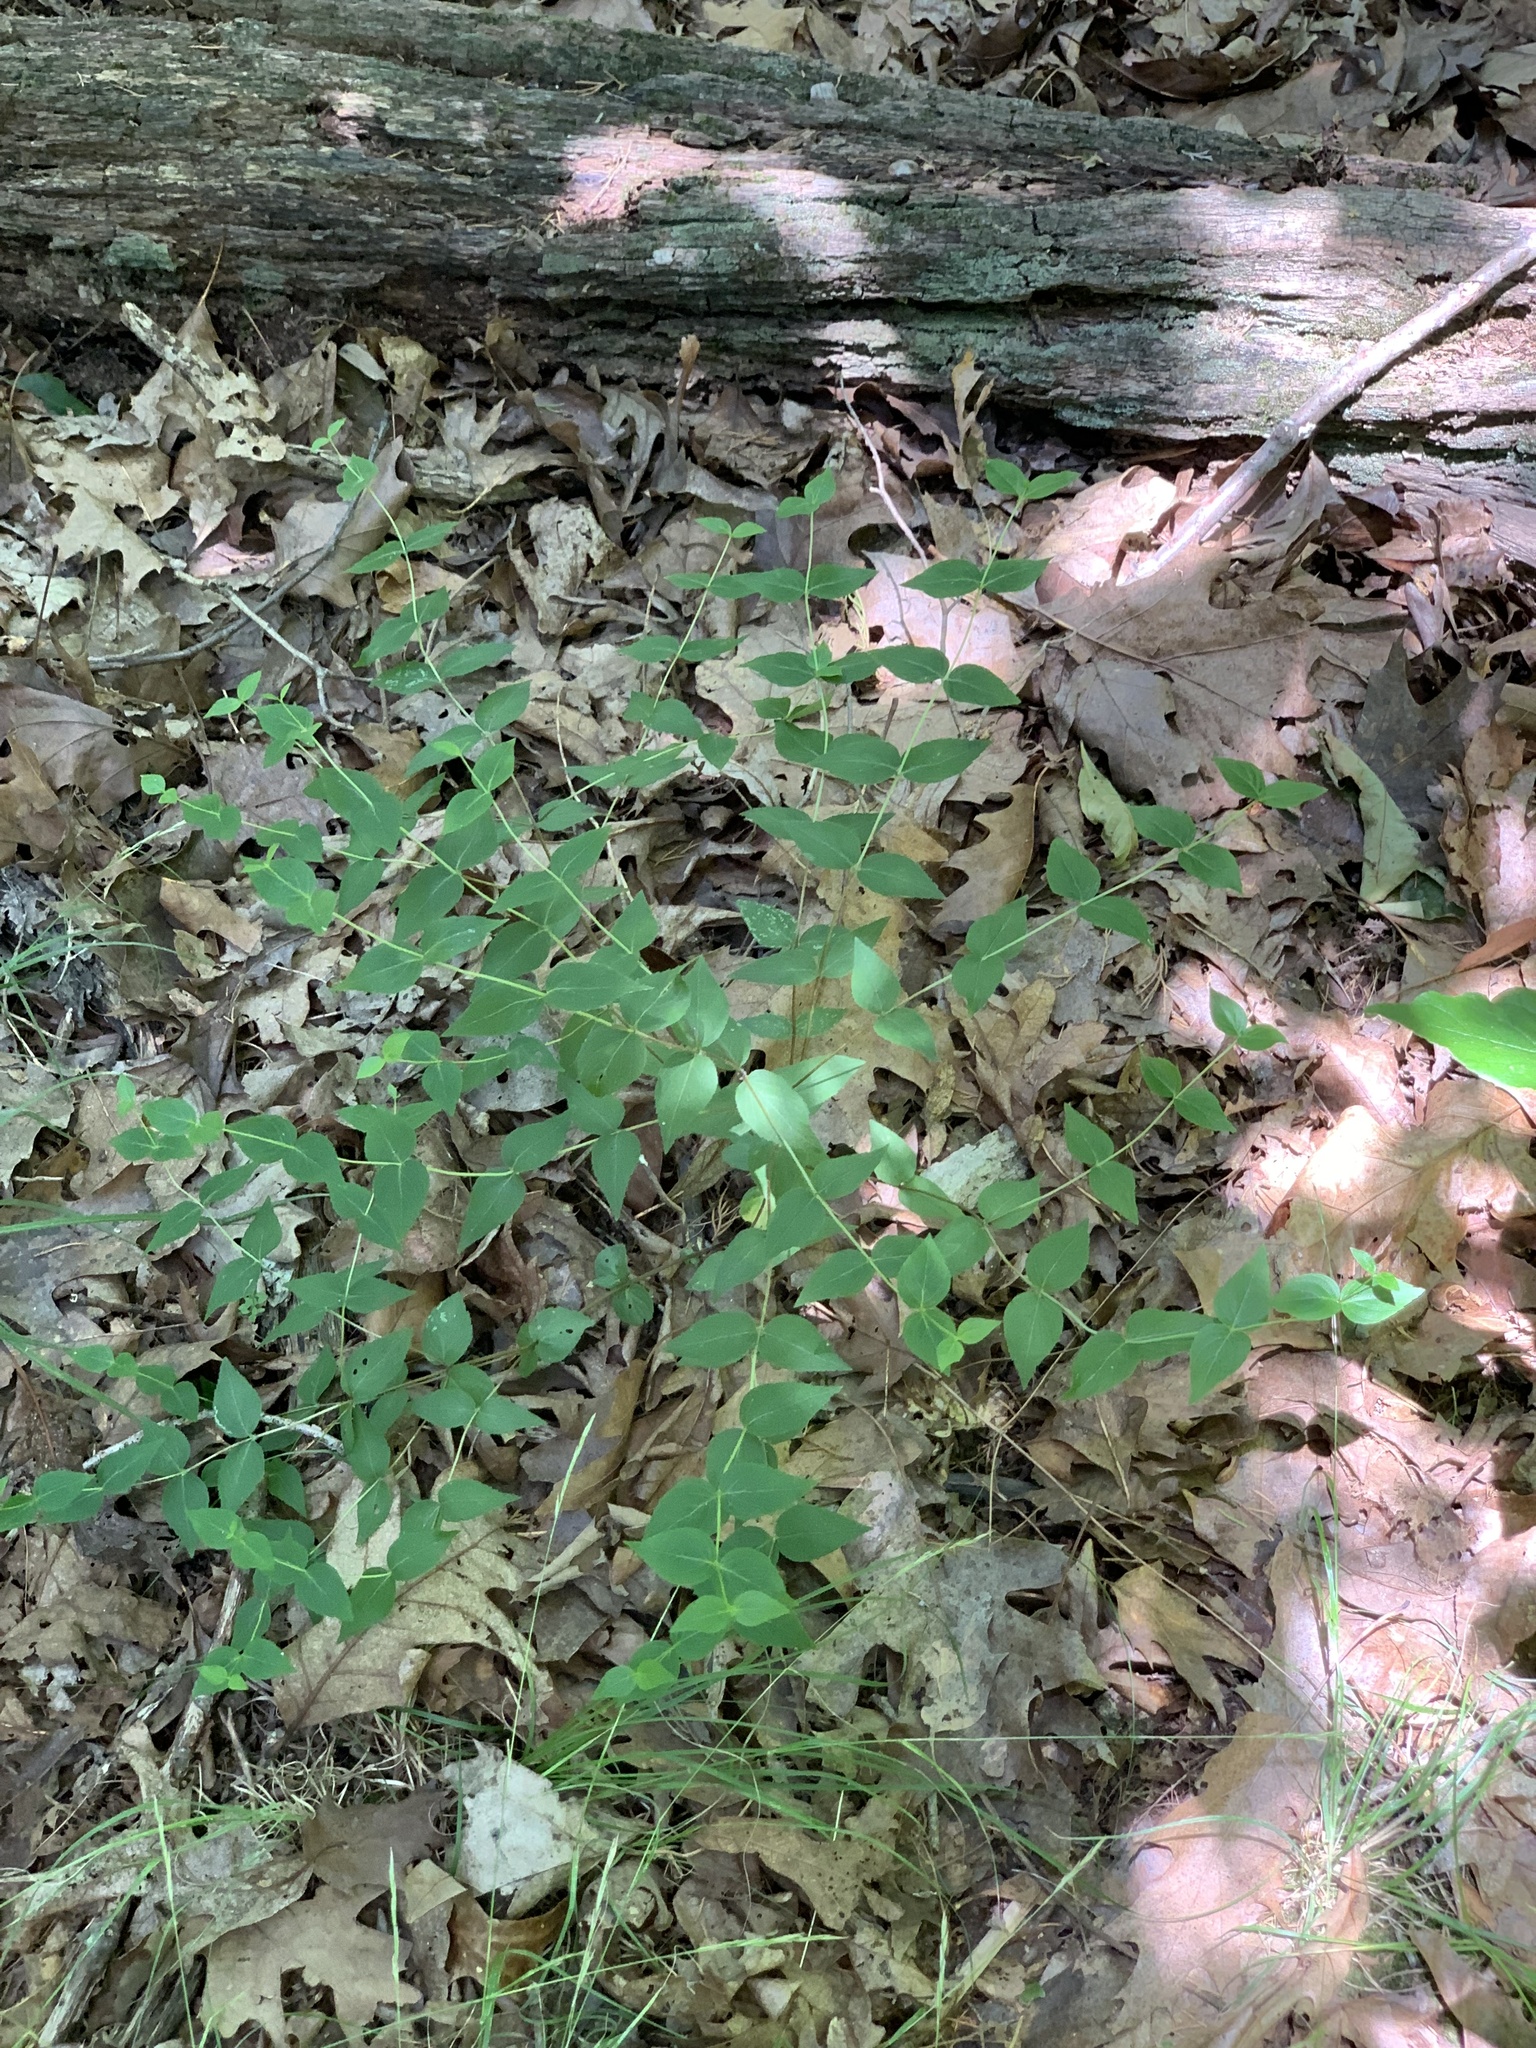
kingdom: Plantae
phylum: Tracheophyta
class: Magnoliopsida
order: Lamiales
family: Lamiaceae
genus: Cunila
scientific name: Cunila origanoides
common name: American dittany
